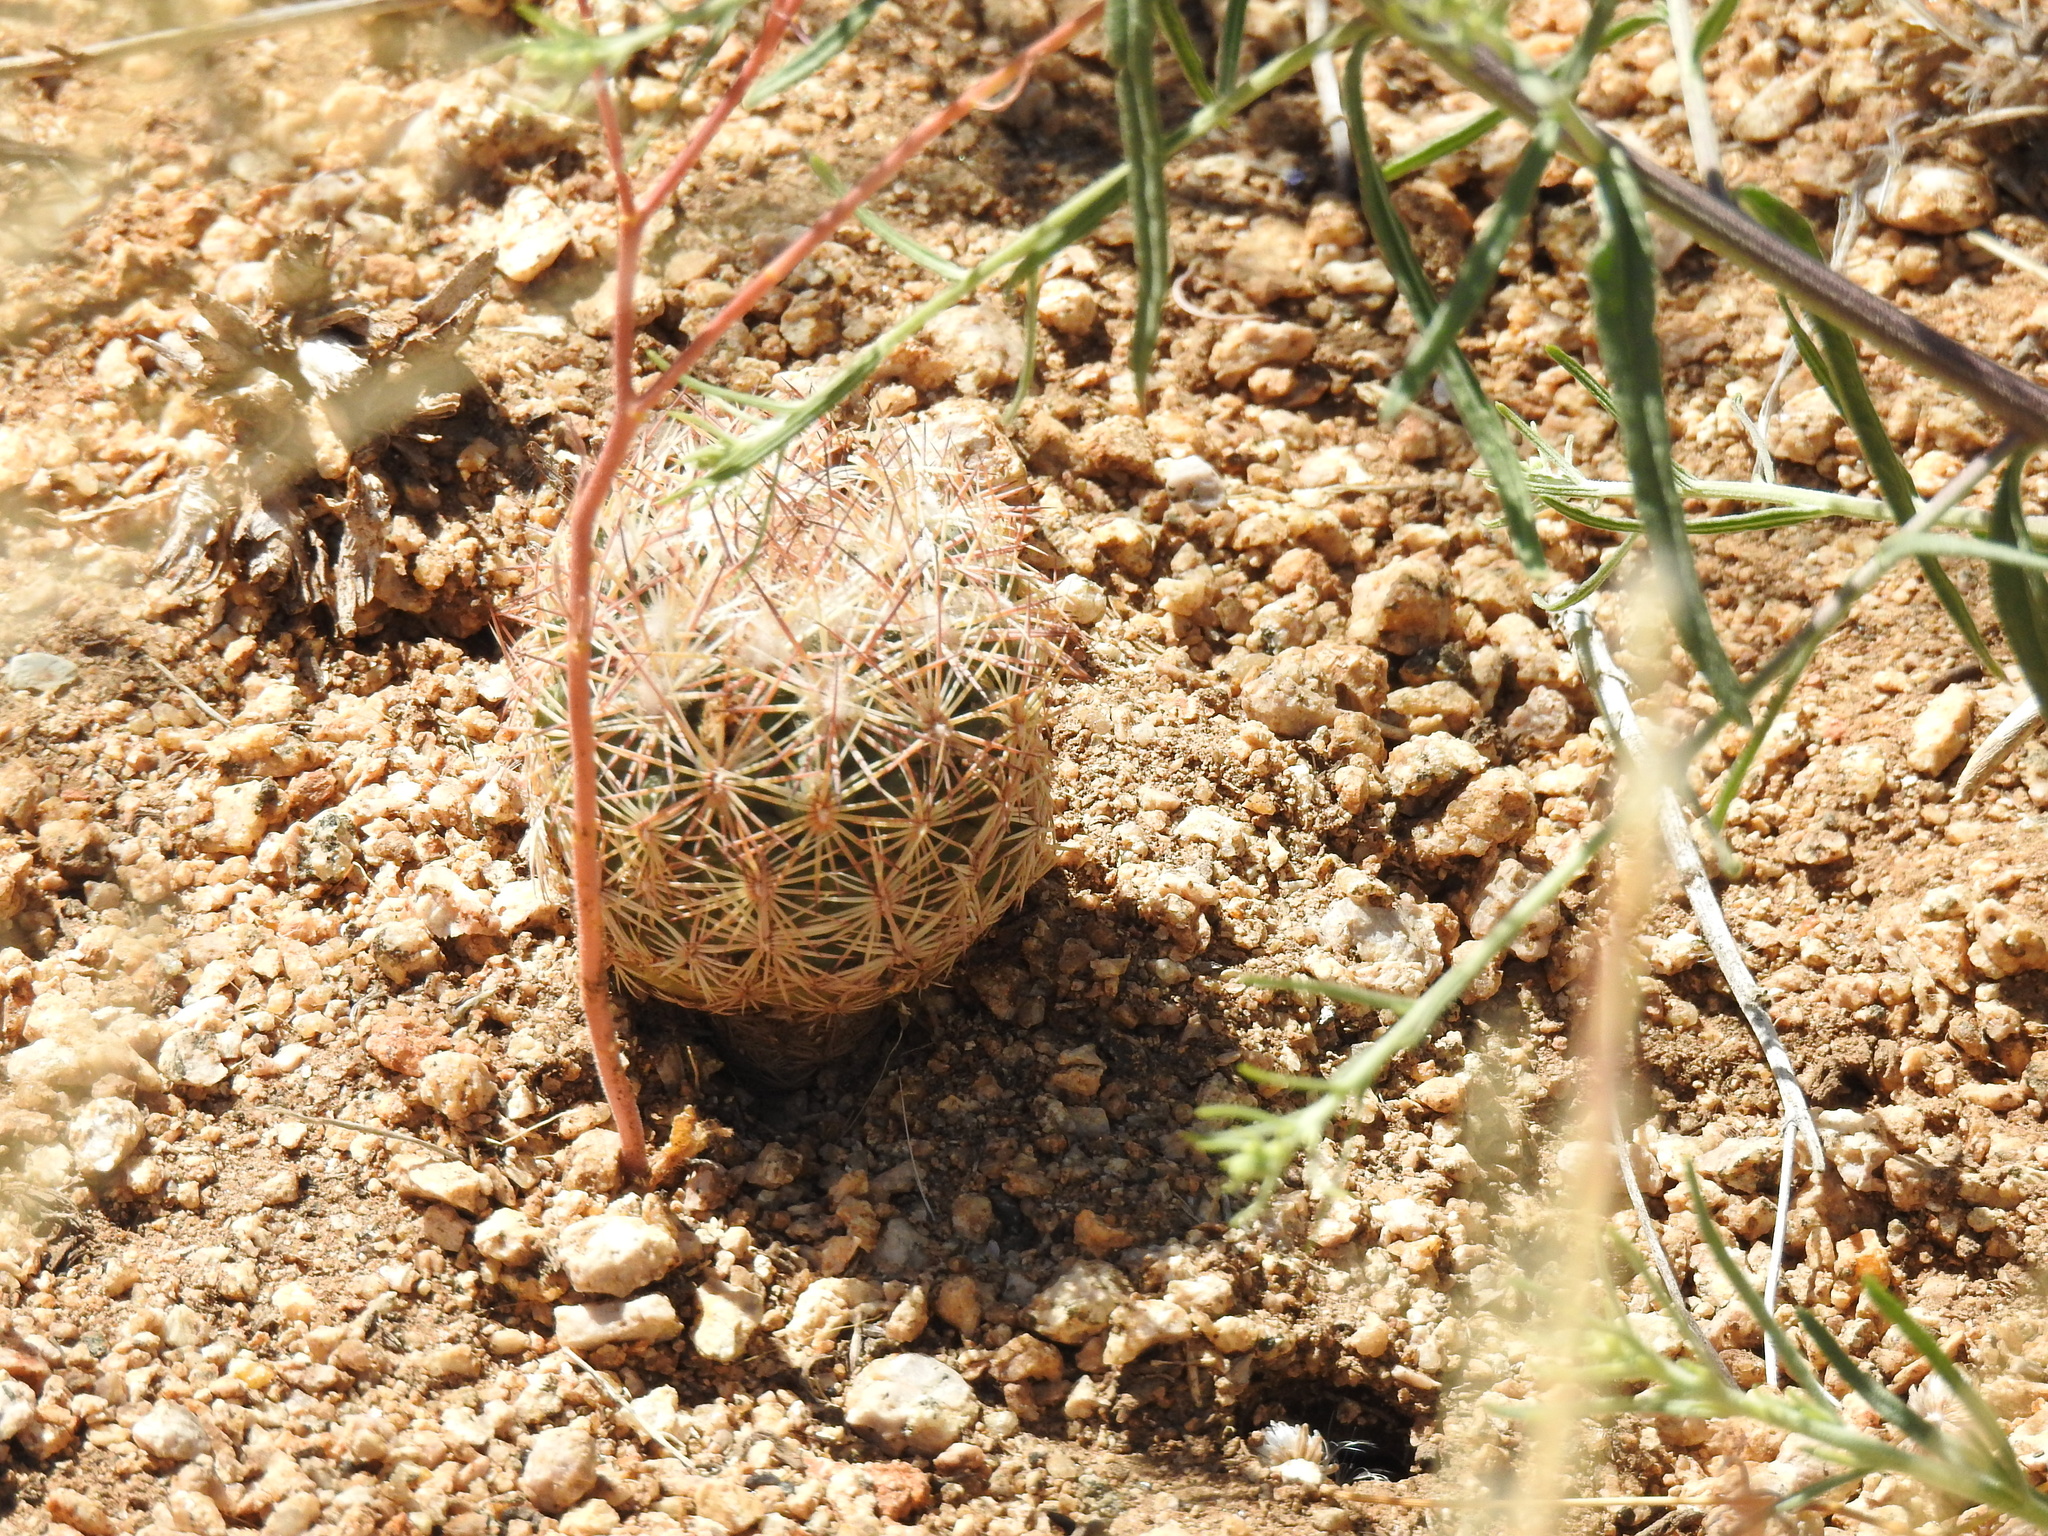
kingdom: Plantae
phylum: Tracheophyta
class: Magnoliopsida
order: Caryophyllales
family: Cactaceae
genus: Pelecyphora
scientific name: Pelecyphora vivipara
